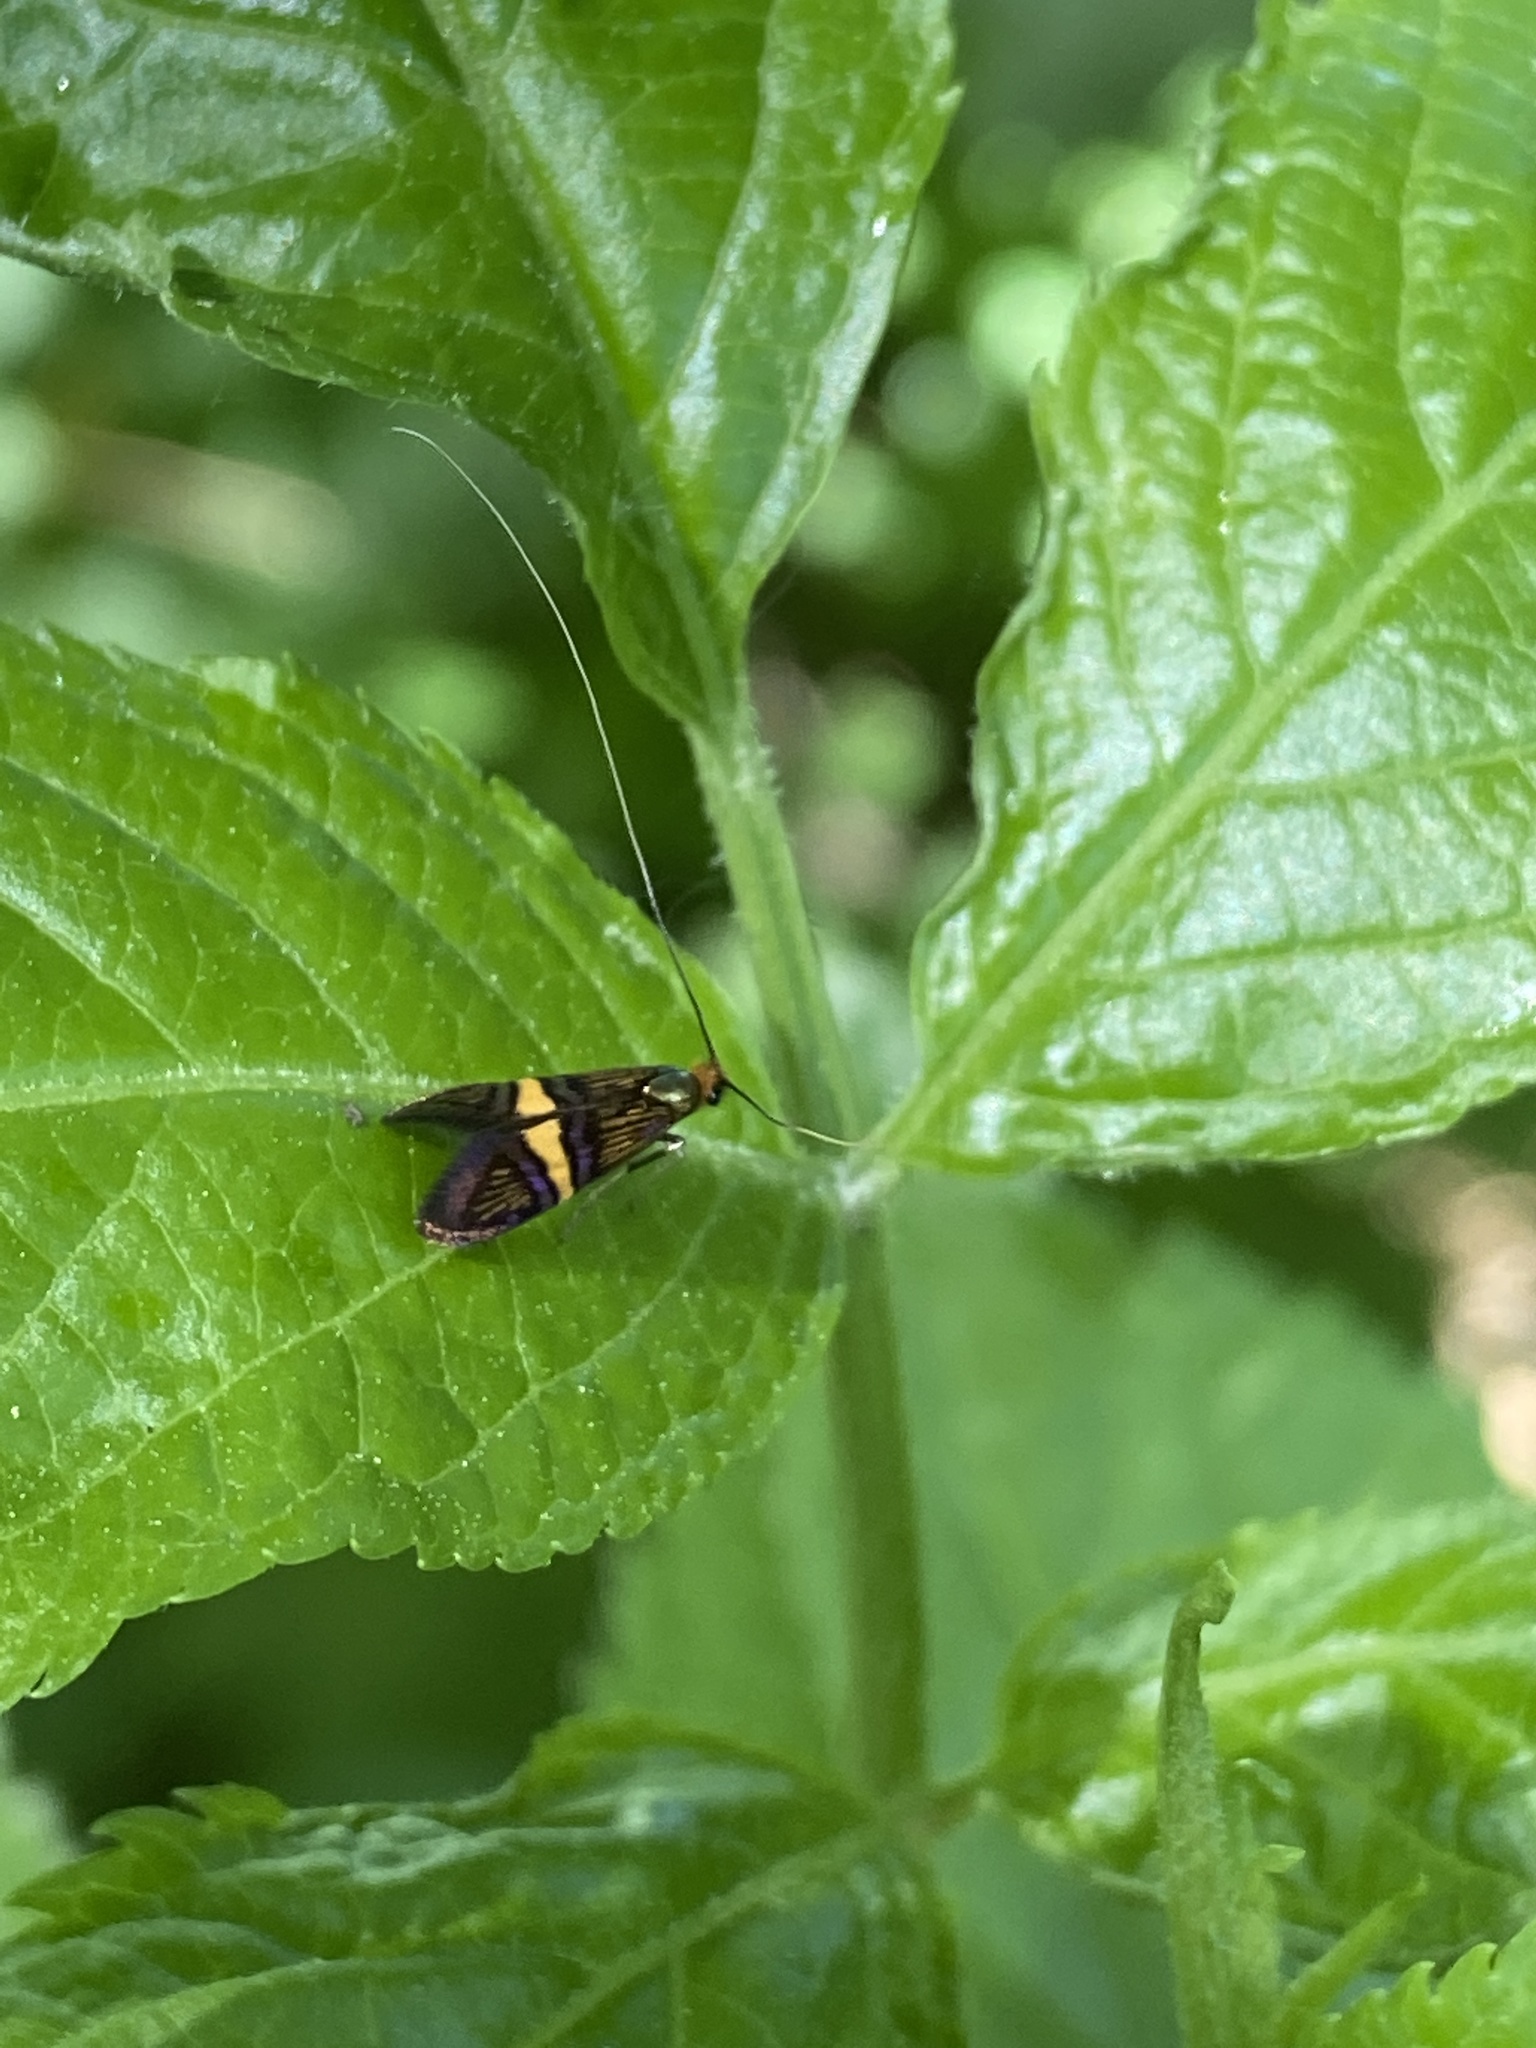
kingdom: Animalia
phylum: Arthropoda
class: Insecta
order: Lepidoptera
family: Adelidae
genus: Adela
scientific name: Adela croesella
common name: Small barred long-horn
